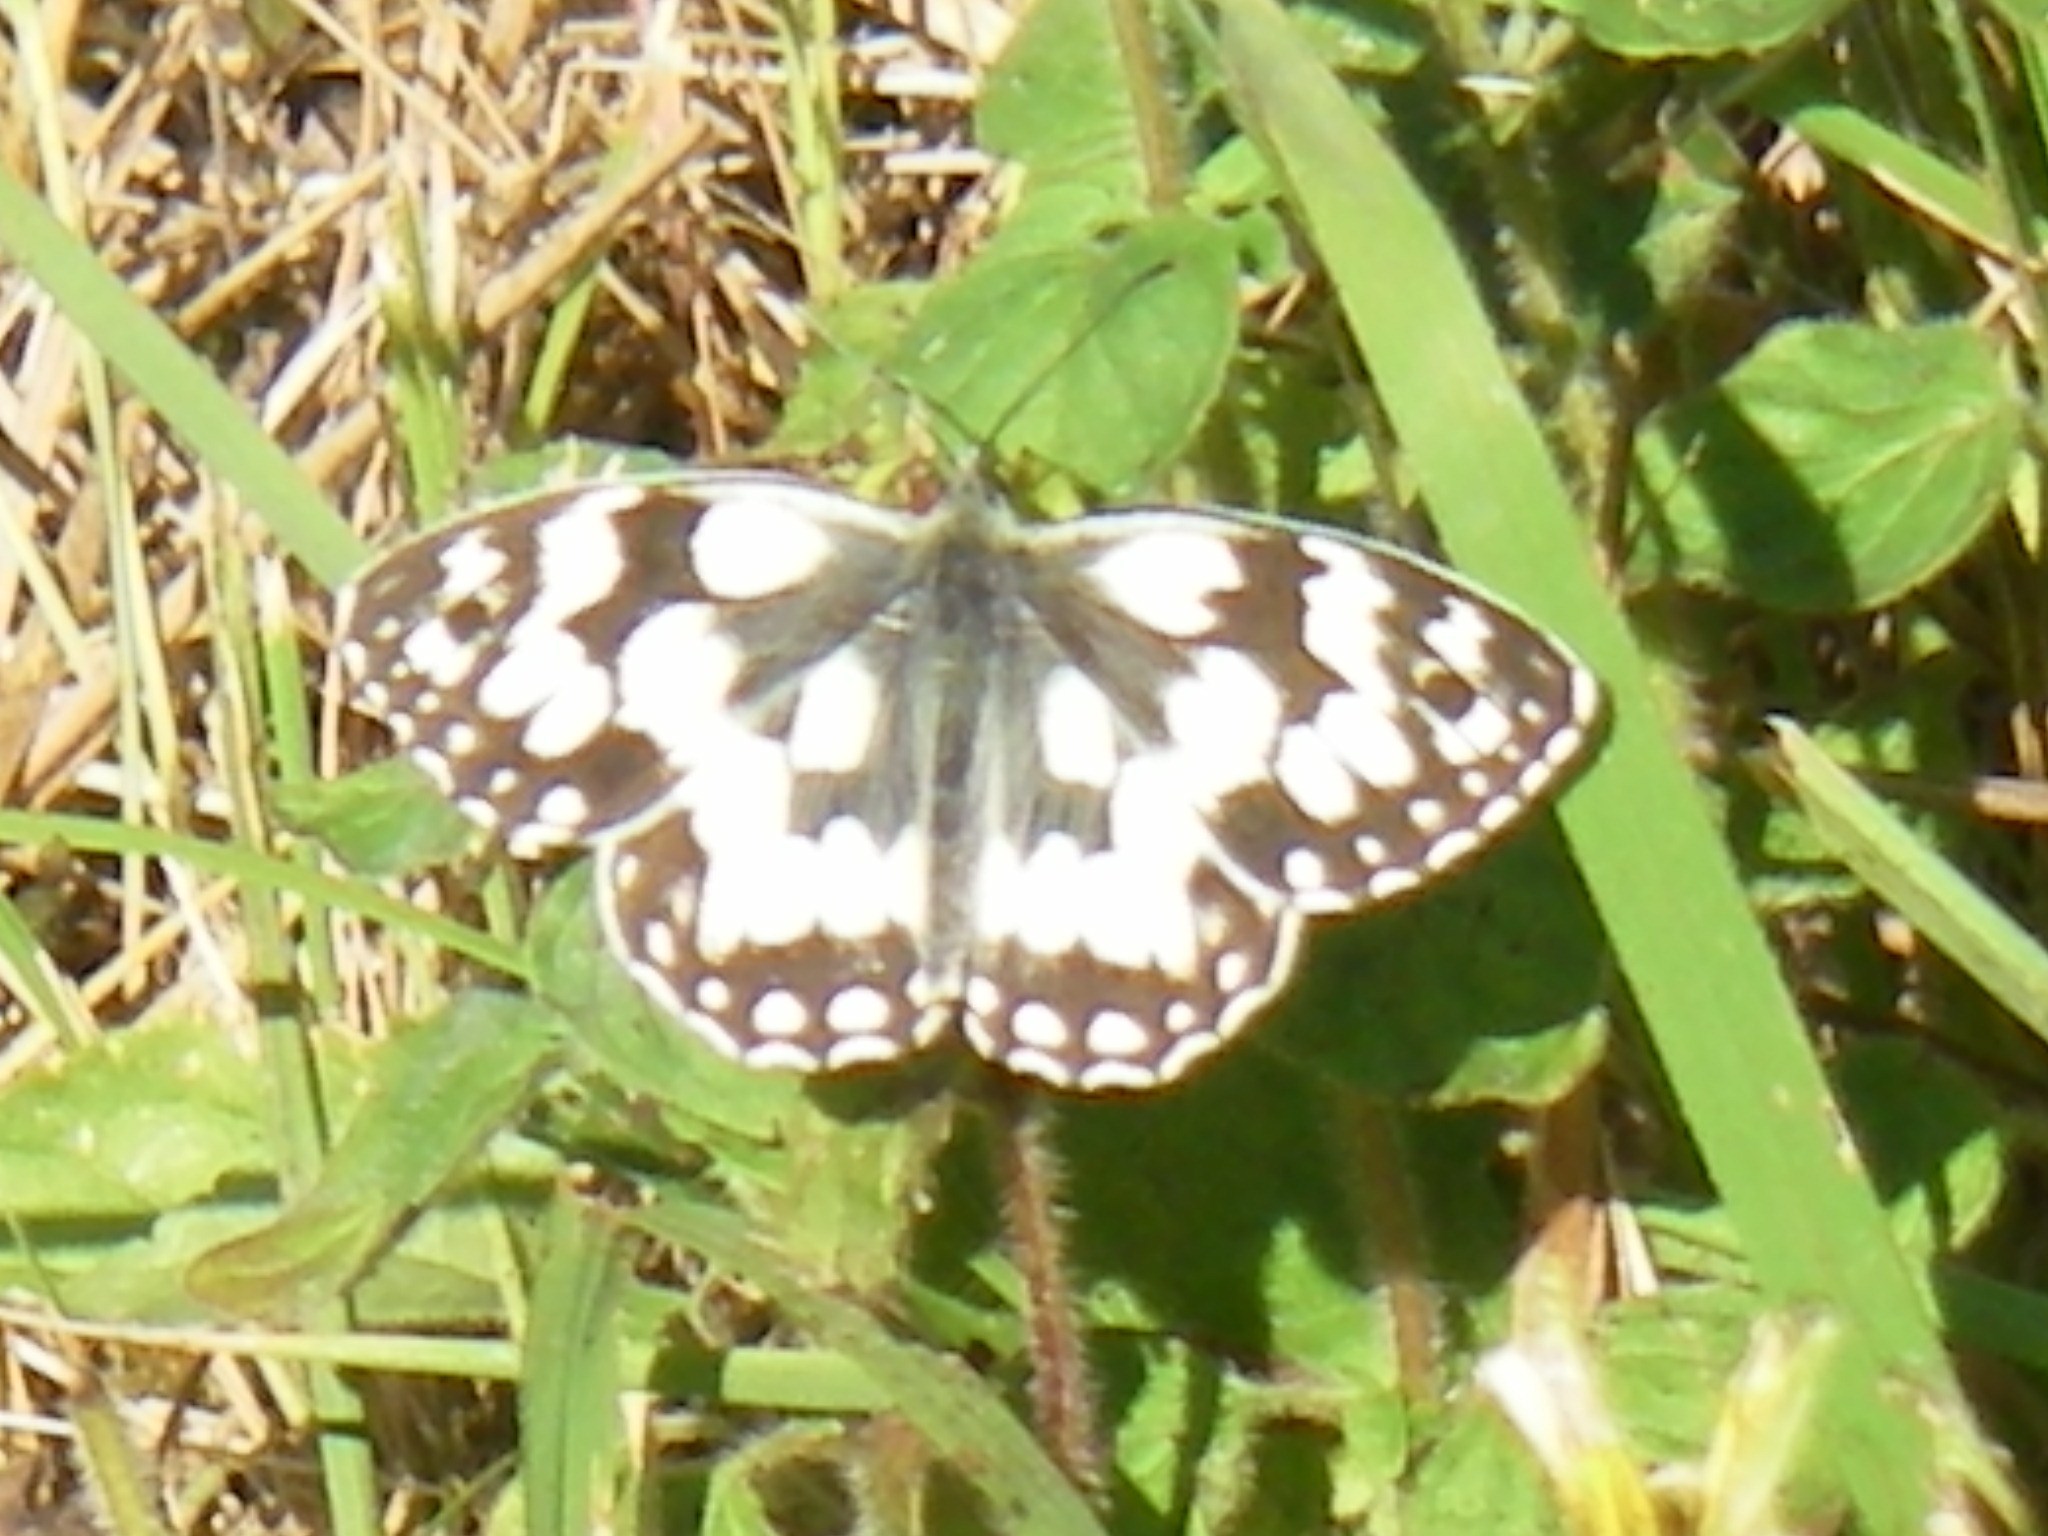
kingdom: Animalia
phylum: Arthropoda
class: Insecta
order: Lepidoptera
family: Nymphalidae
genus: Melanargia
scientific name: Melanargia galathea
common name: Marbled white
